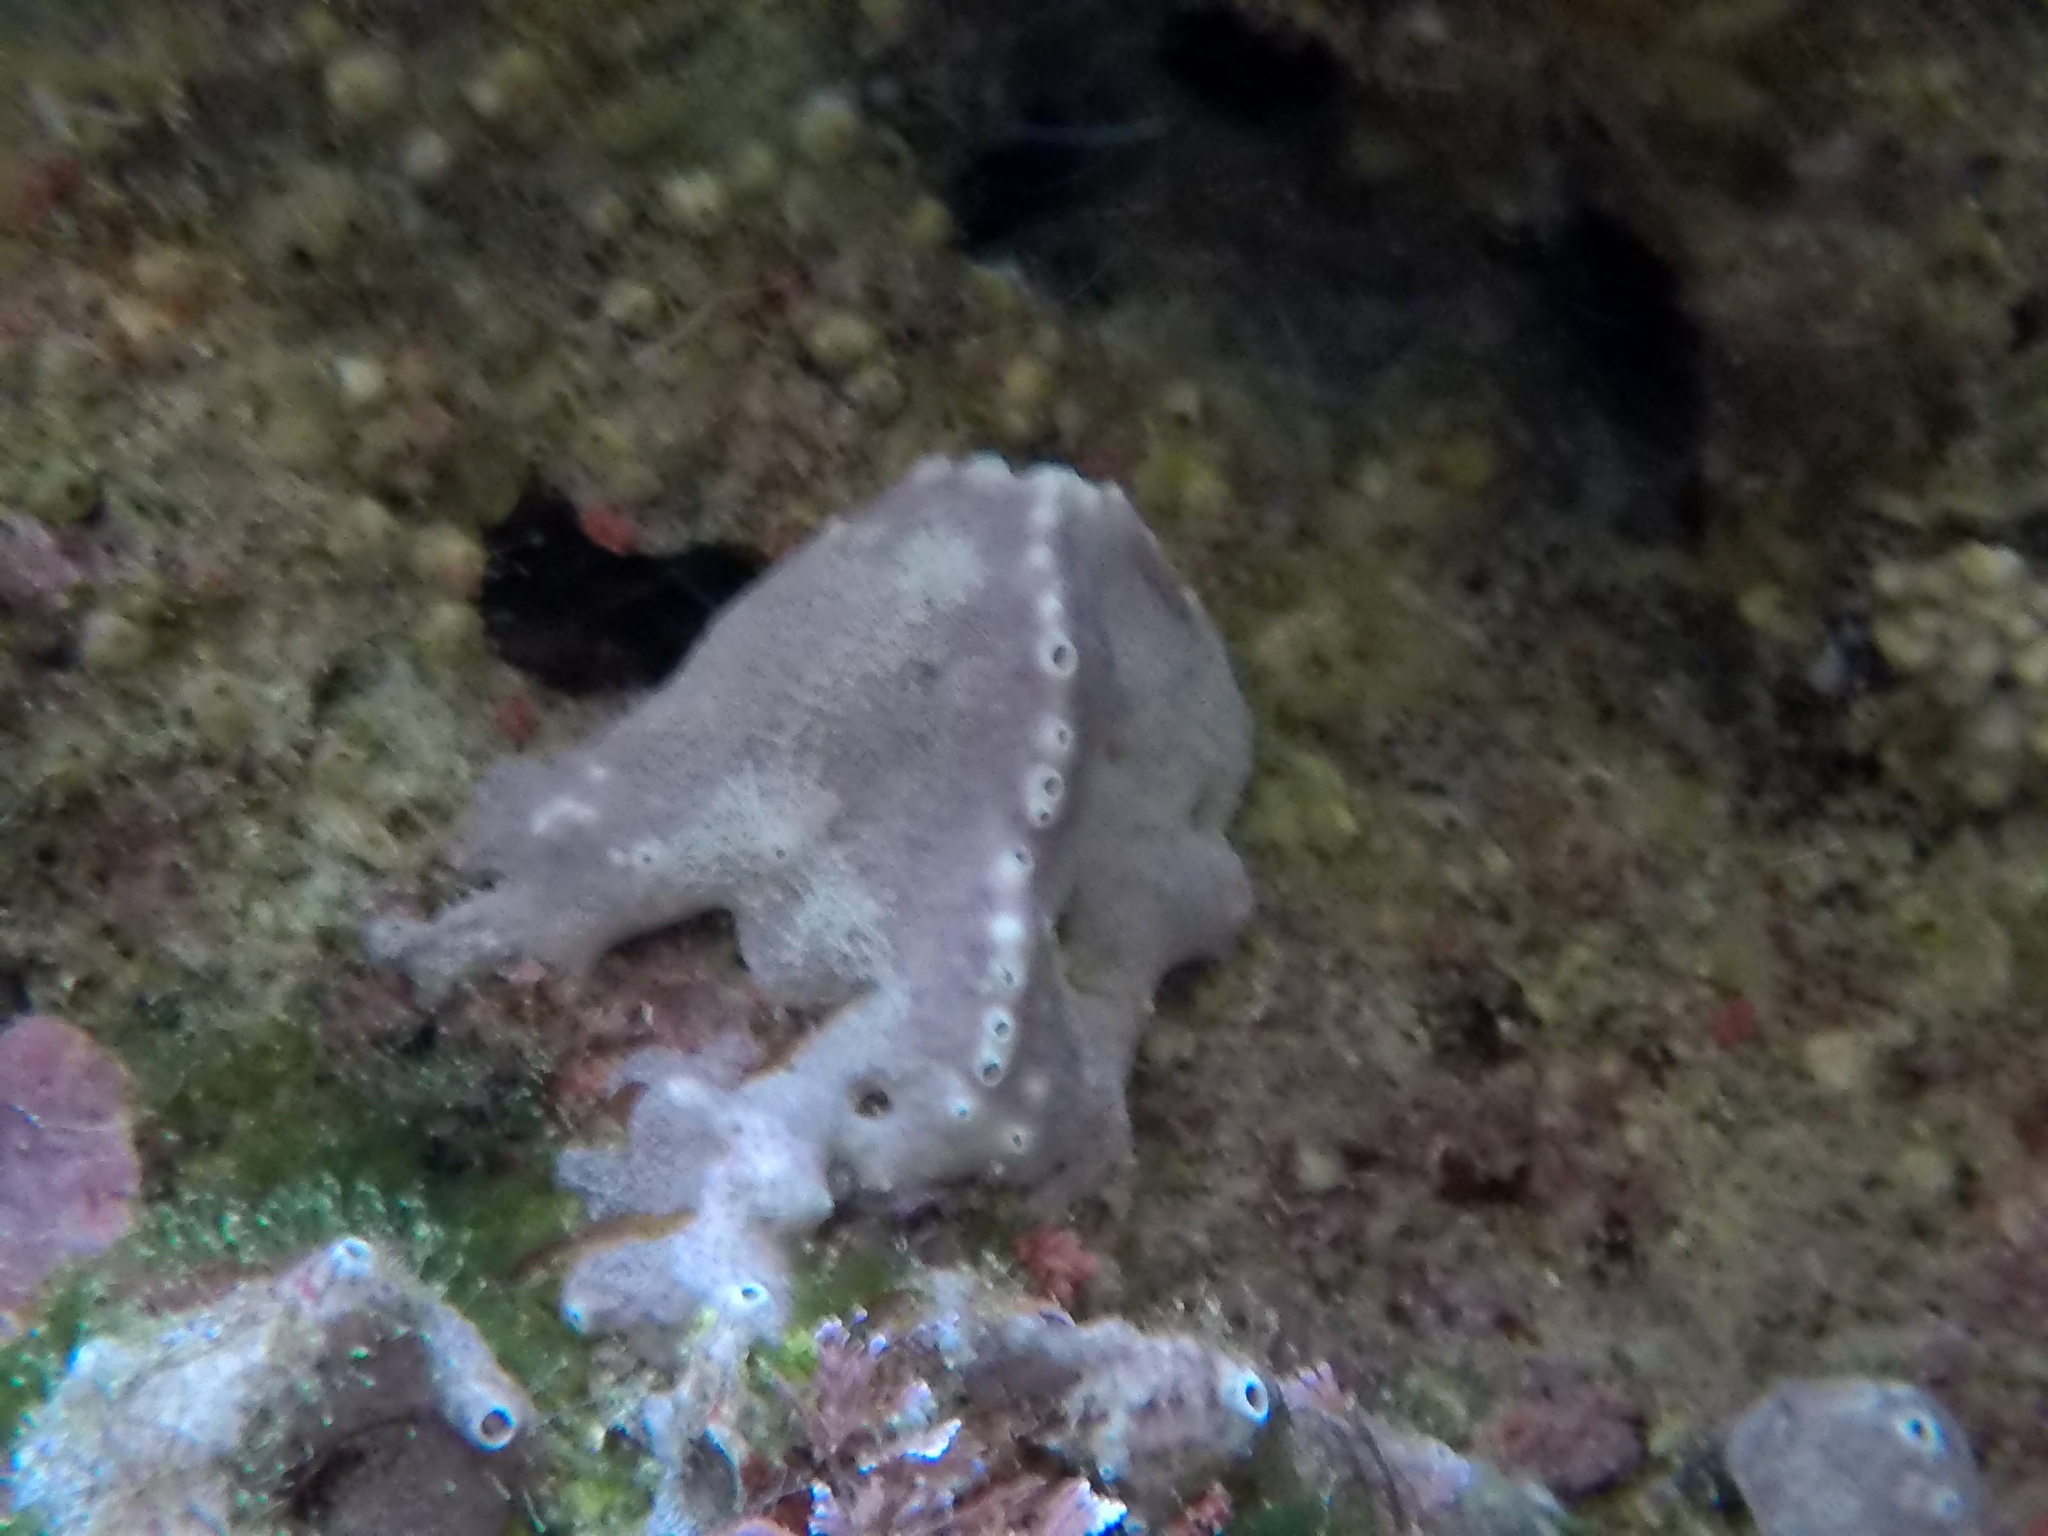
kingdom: Animalia
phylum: Porifera
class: Demospongiae
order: Dictyoceratida
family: Irciniidae
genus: Ircinia
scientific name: Ircinia variabilis
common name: Variable loggerhead sponge
